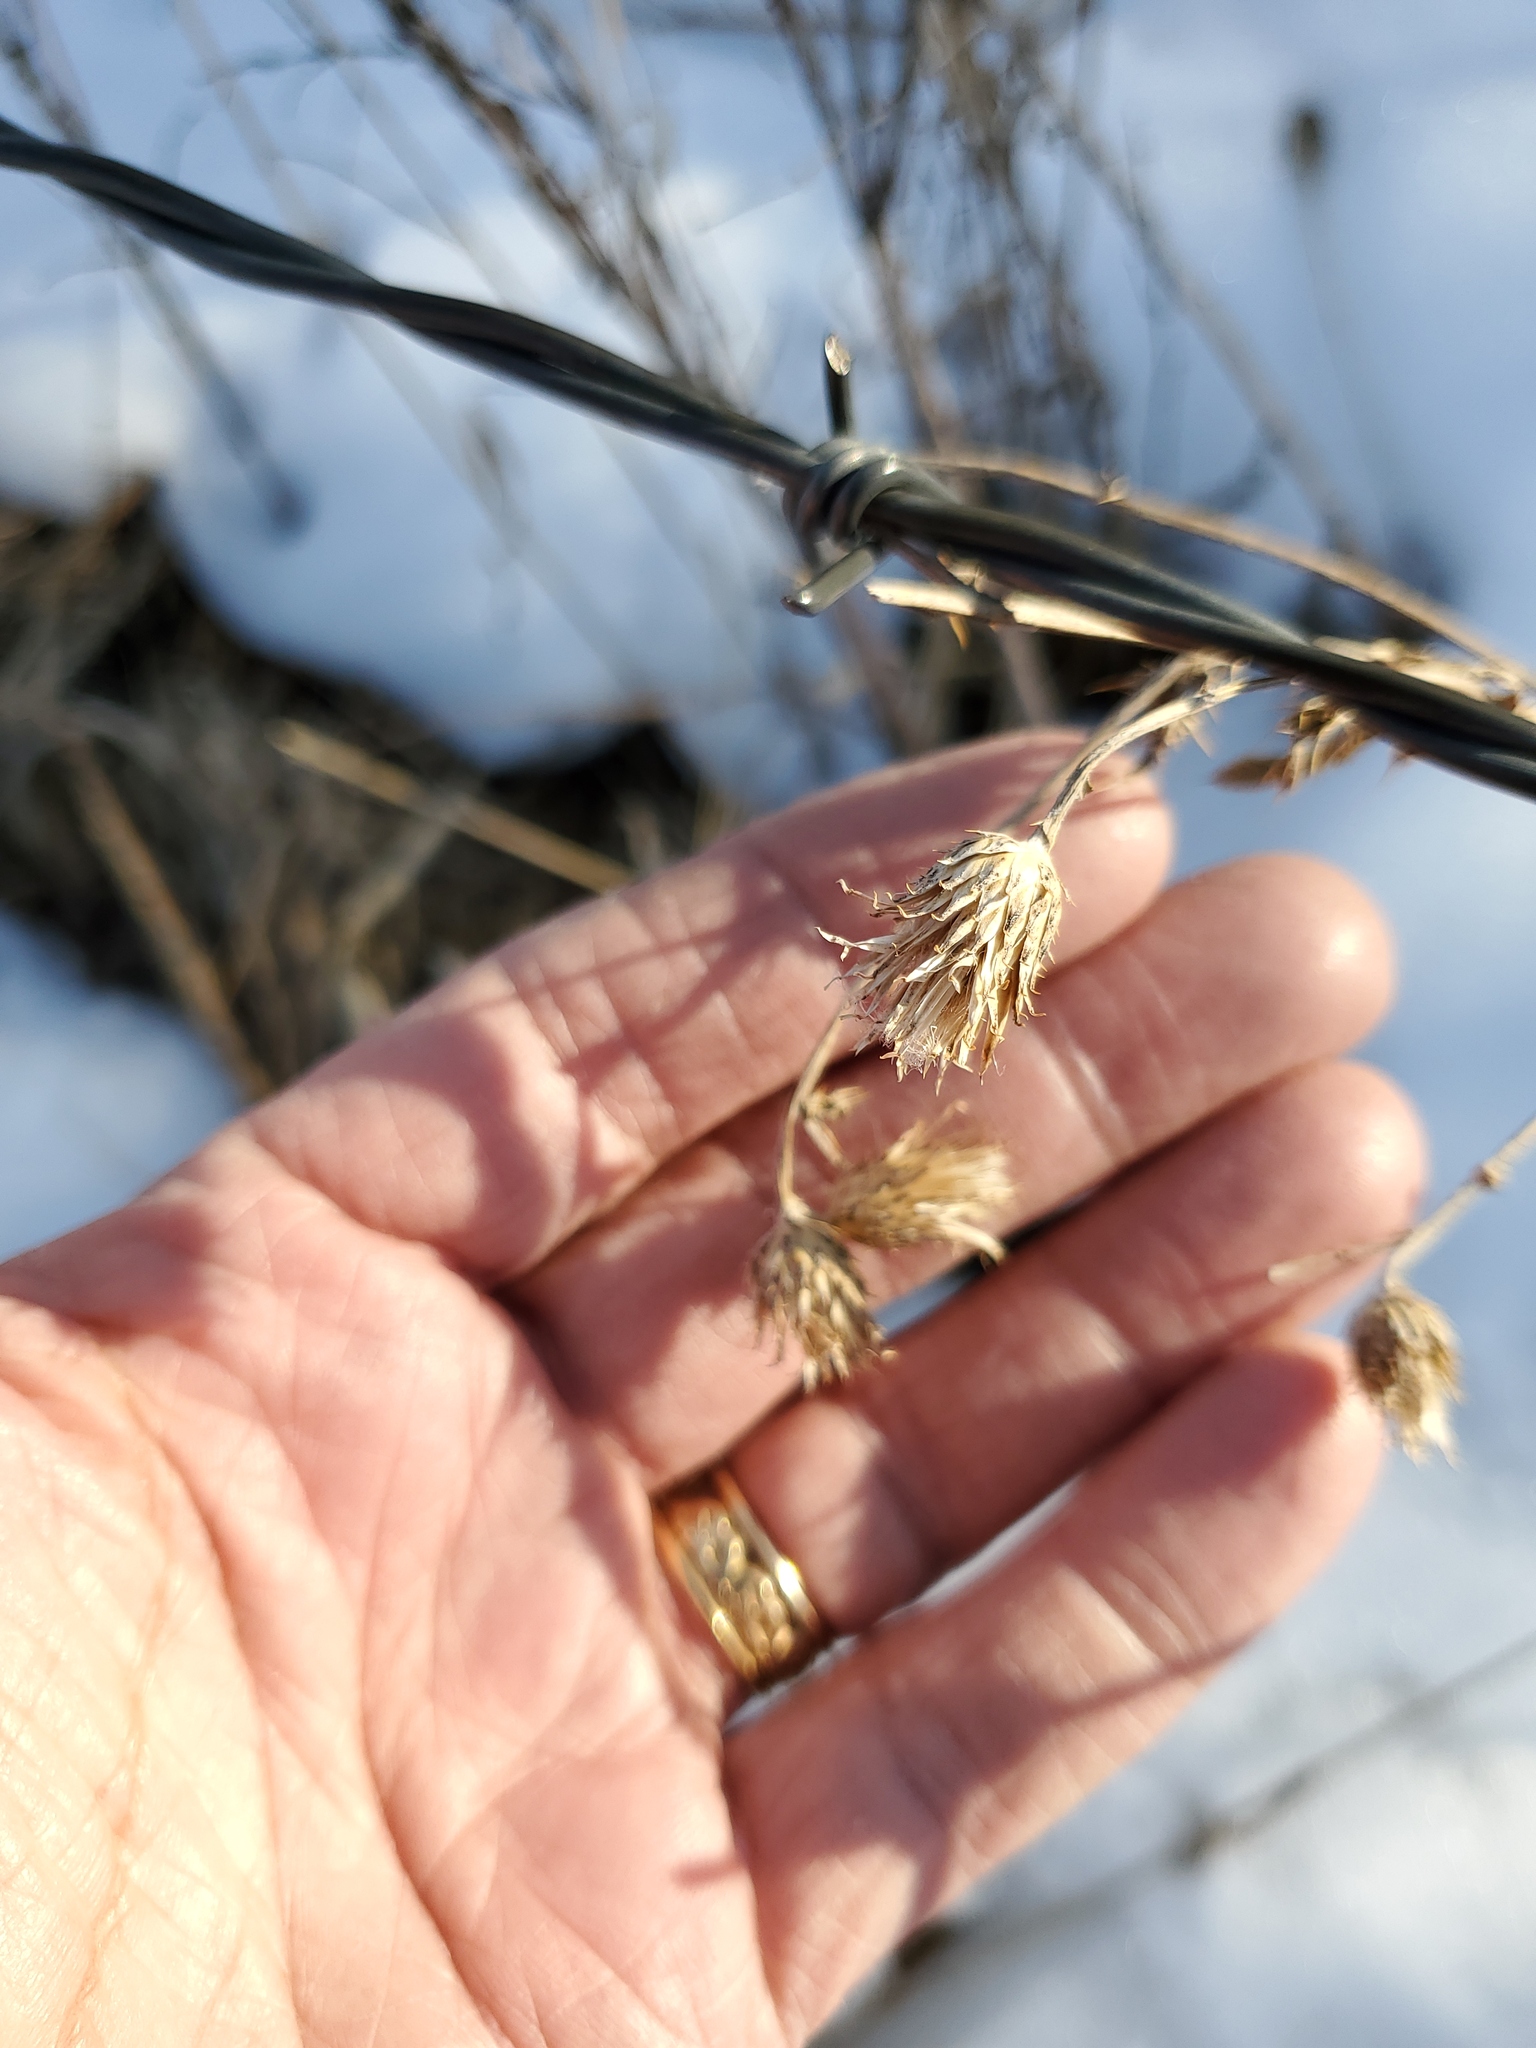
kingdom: Plantae
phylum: Tracheophyta
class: Magnoliopsida
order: Asterales
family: Asteraceae
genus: Cirsium
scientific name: Cirsium arvense
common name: Creeping thistle
